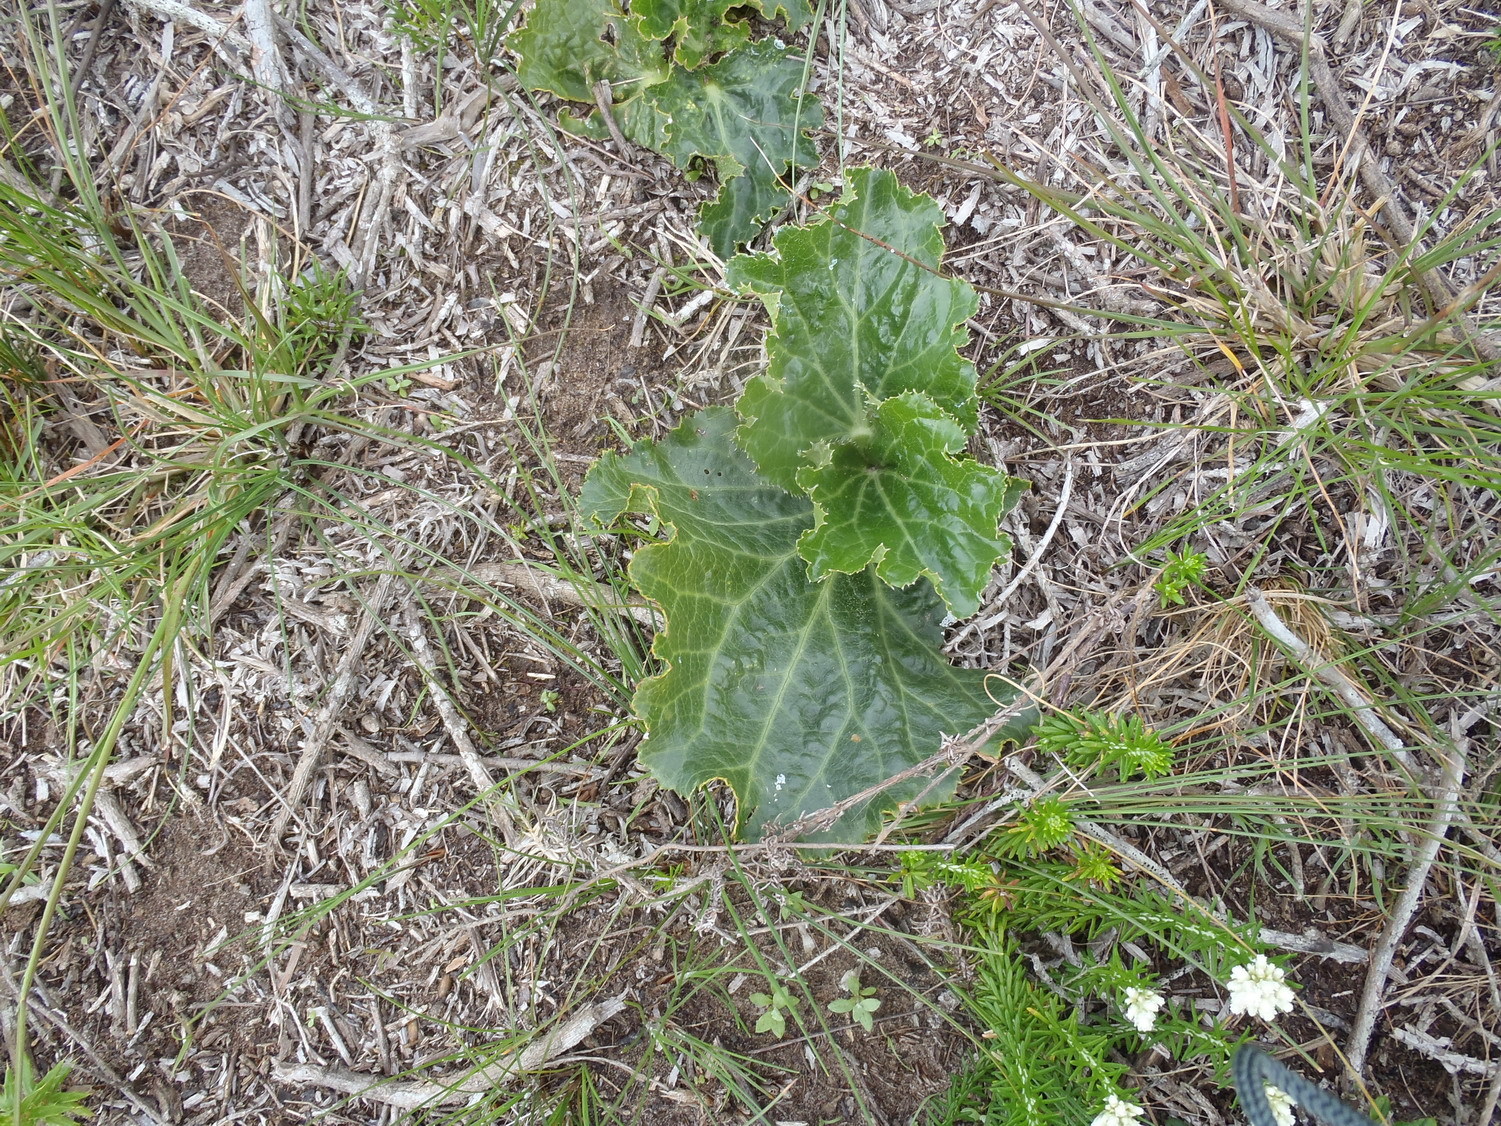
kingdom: Plantae
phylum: Tracheophyta
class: Magnoliopsida
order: Apiales
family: Apiaceae
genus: Lichtensteinia
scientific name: Lichtensteinia latifolia
